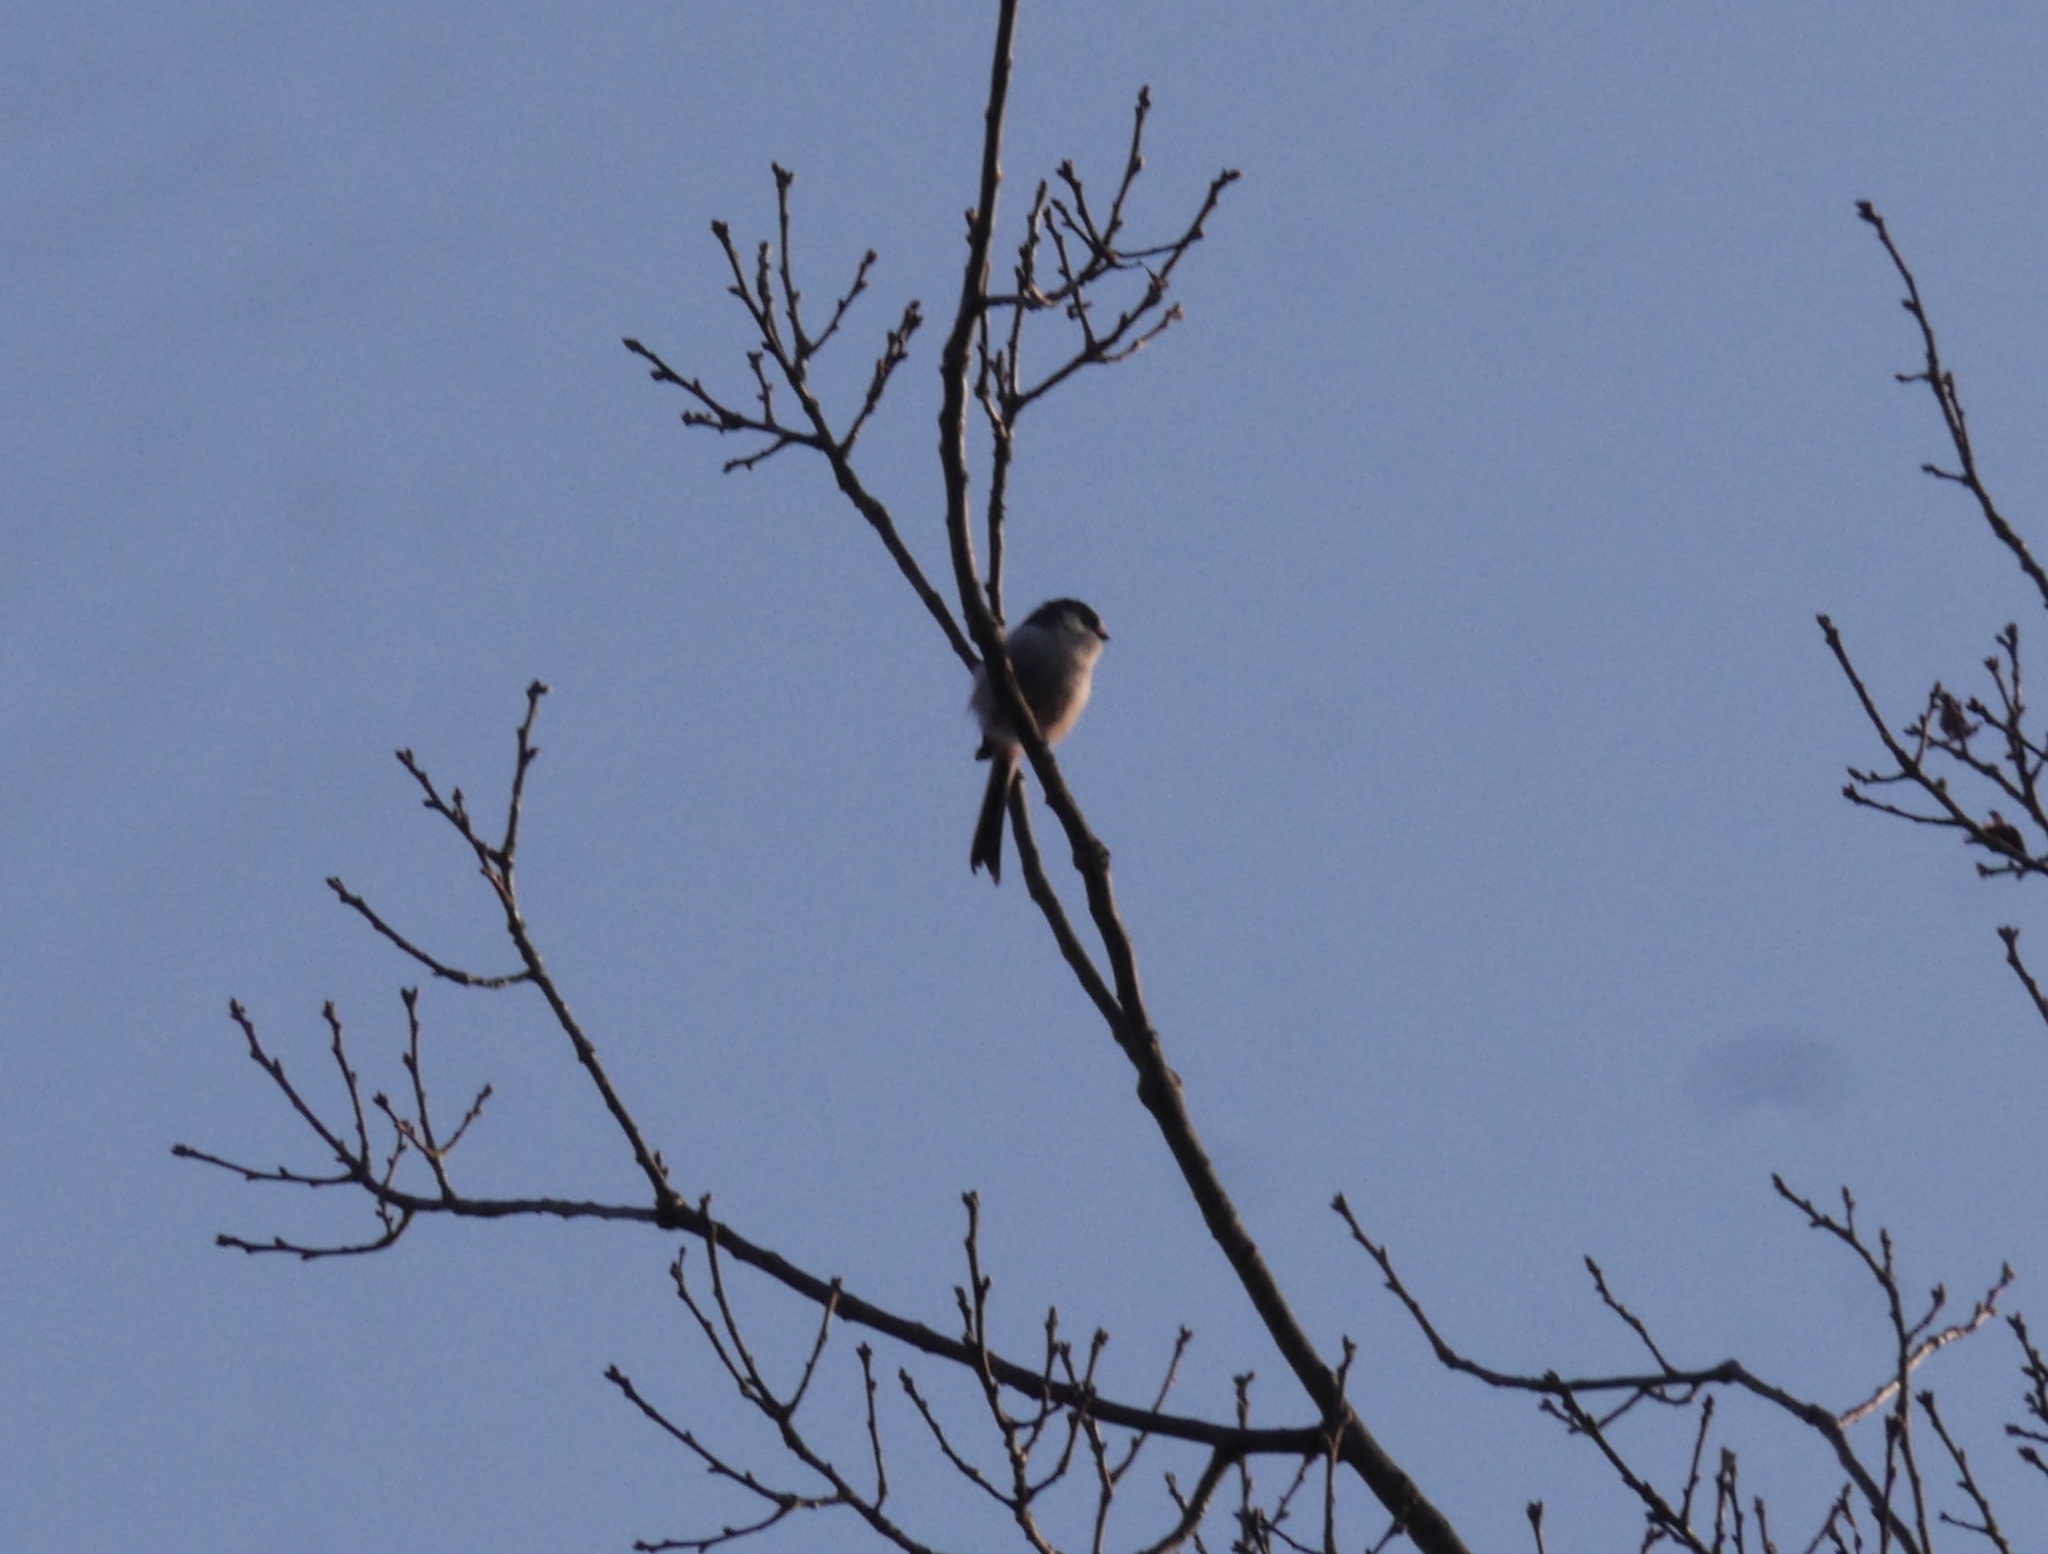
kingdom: Animalia
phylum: Chordata
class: Aves
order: Passeriformes
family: Aegithalidae
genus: Aegithalos
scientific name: Aegithalos caudatus
